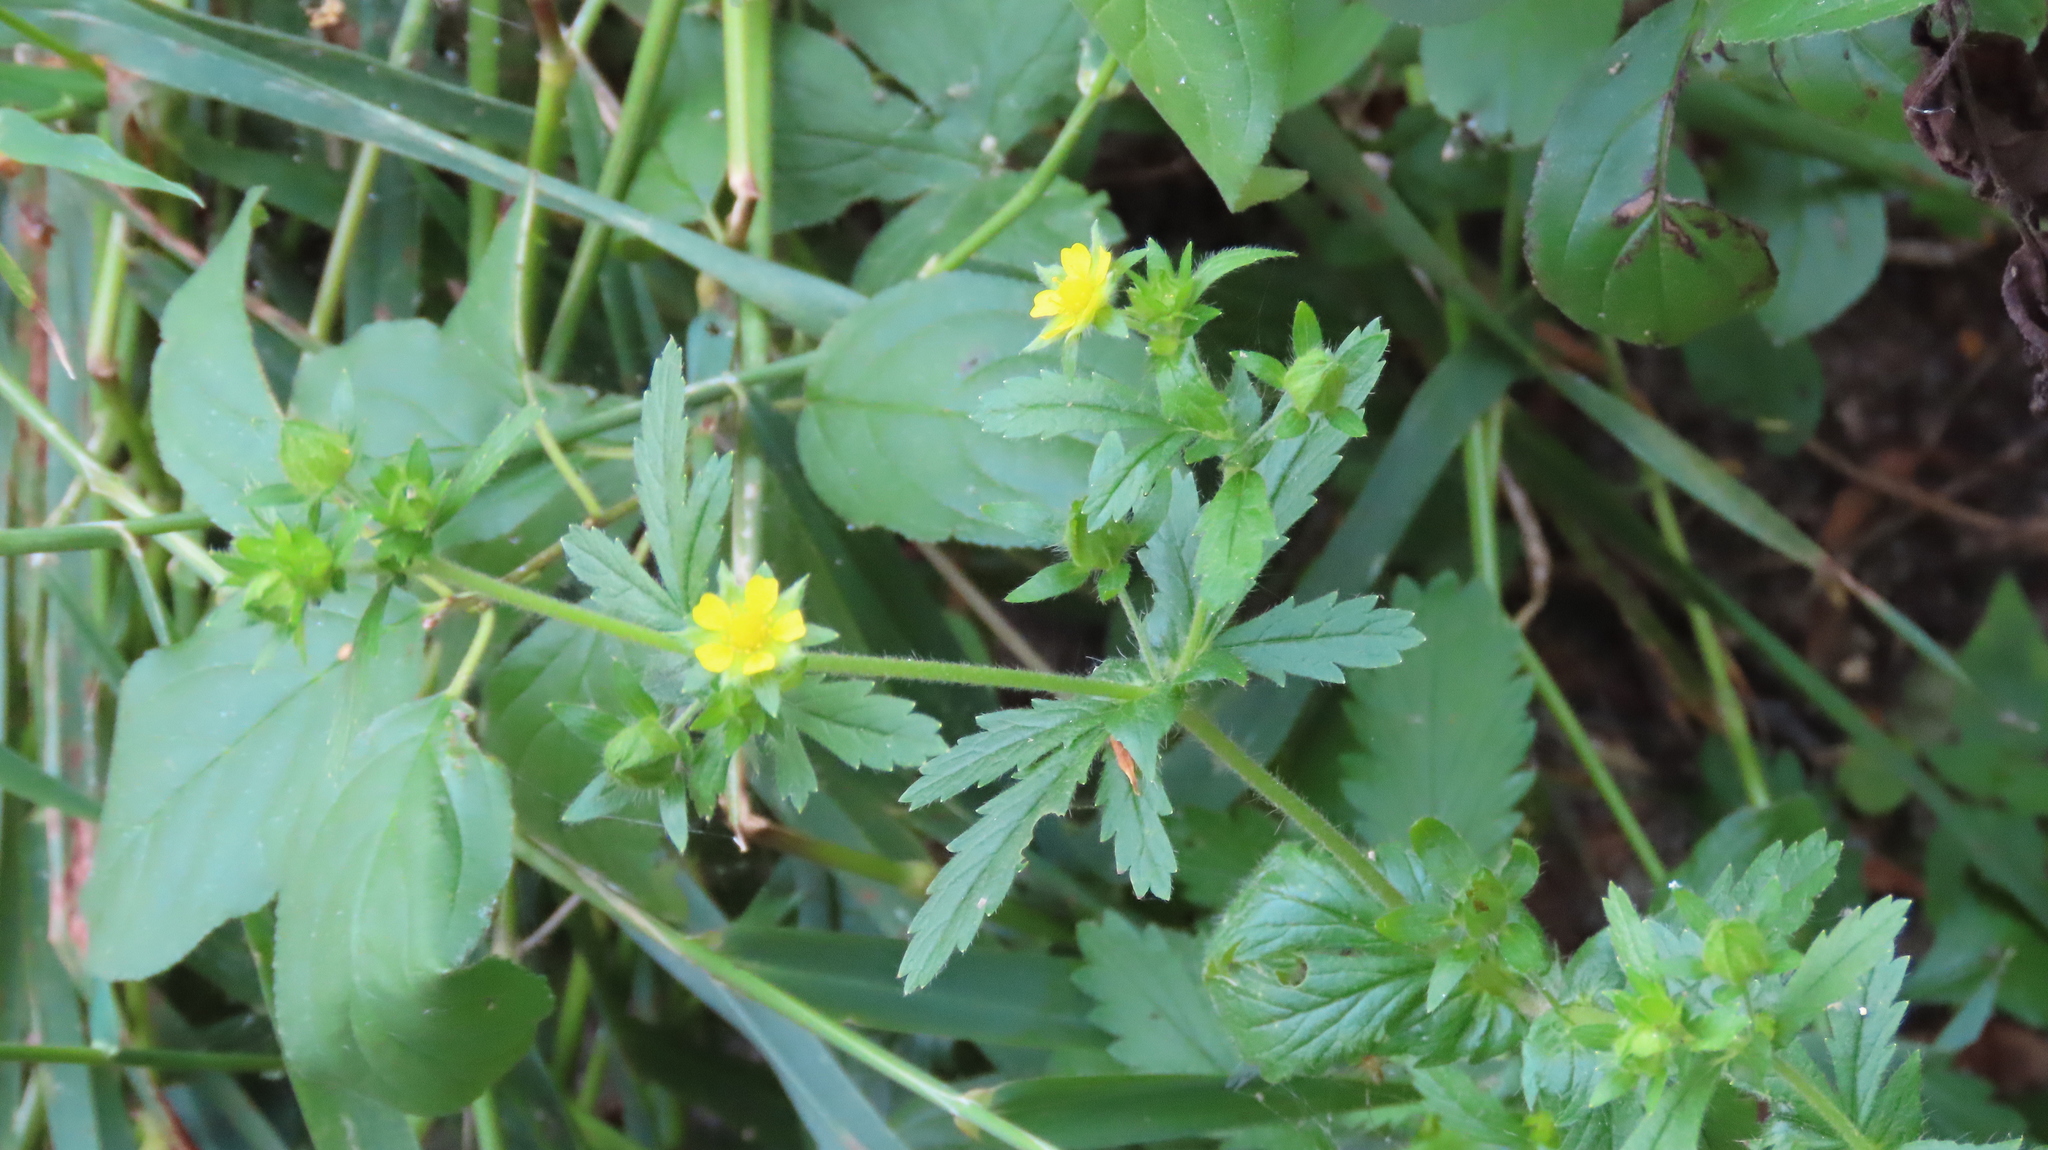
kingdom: Plantae
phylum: Tracheophyta
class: Magnoliopsida
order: Rosales
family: Rosaceae
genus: Potentilla
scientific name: Potentilla norvegica
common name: Ternate-leaved cinquefoil
